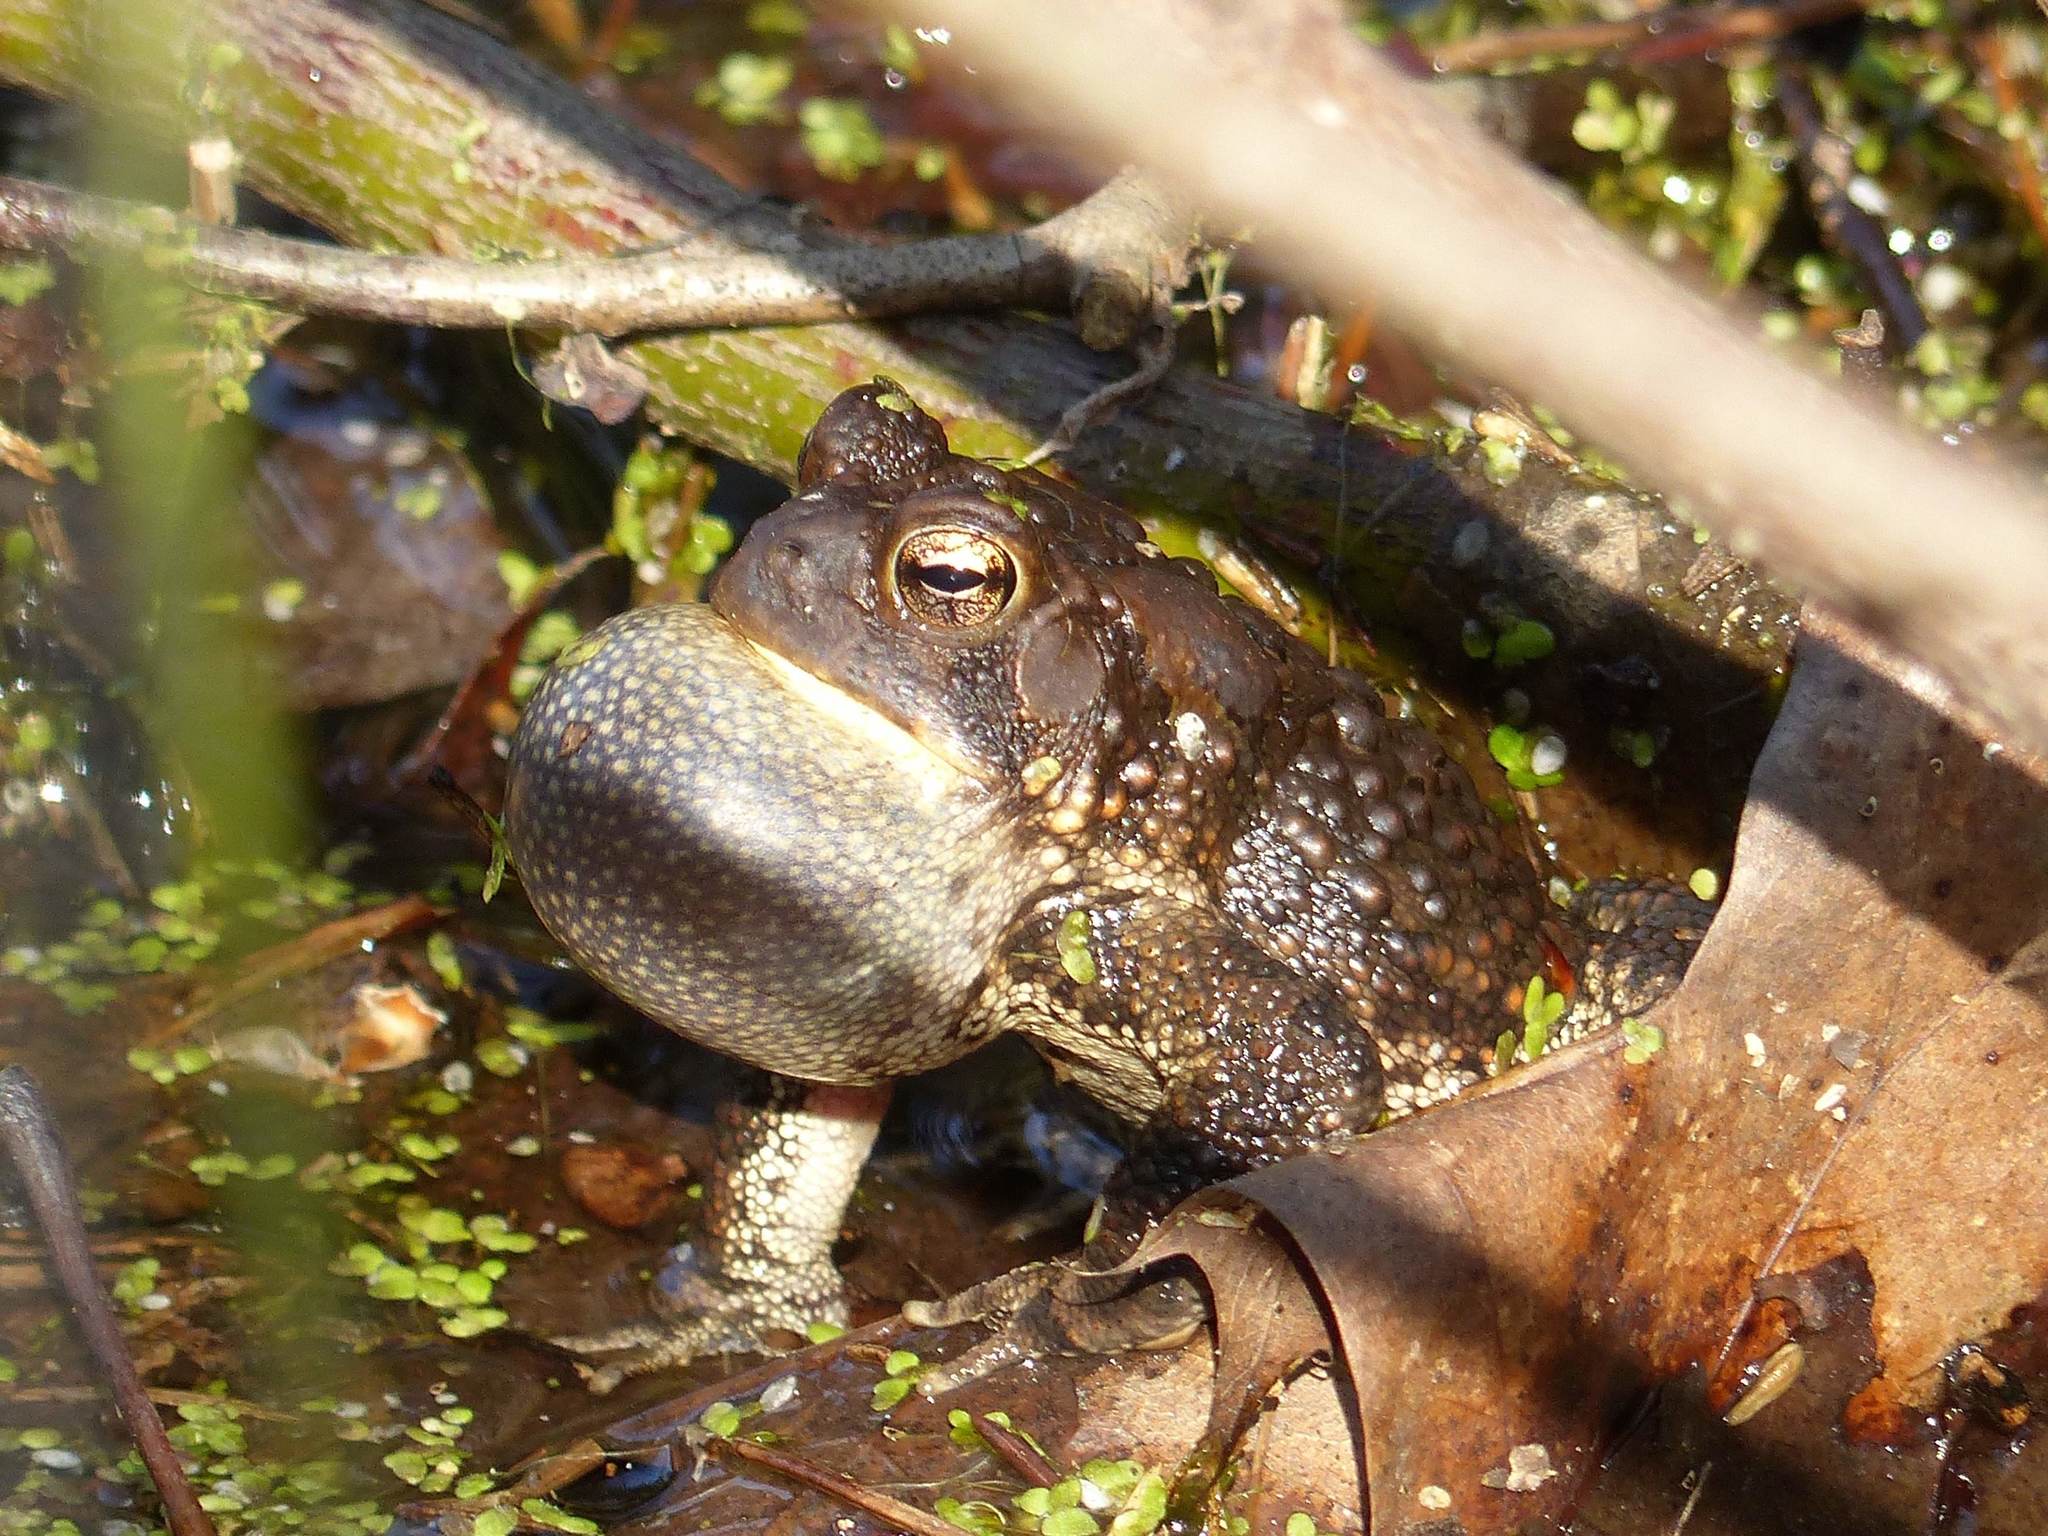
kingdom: Animalia
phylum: Chordata
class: Amphibia
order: Anura
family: Bufonidae
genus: Anaxyrus
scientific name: Anaxyrus americanus
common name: American toad
